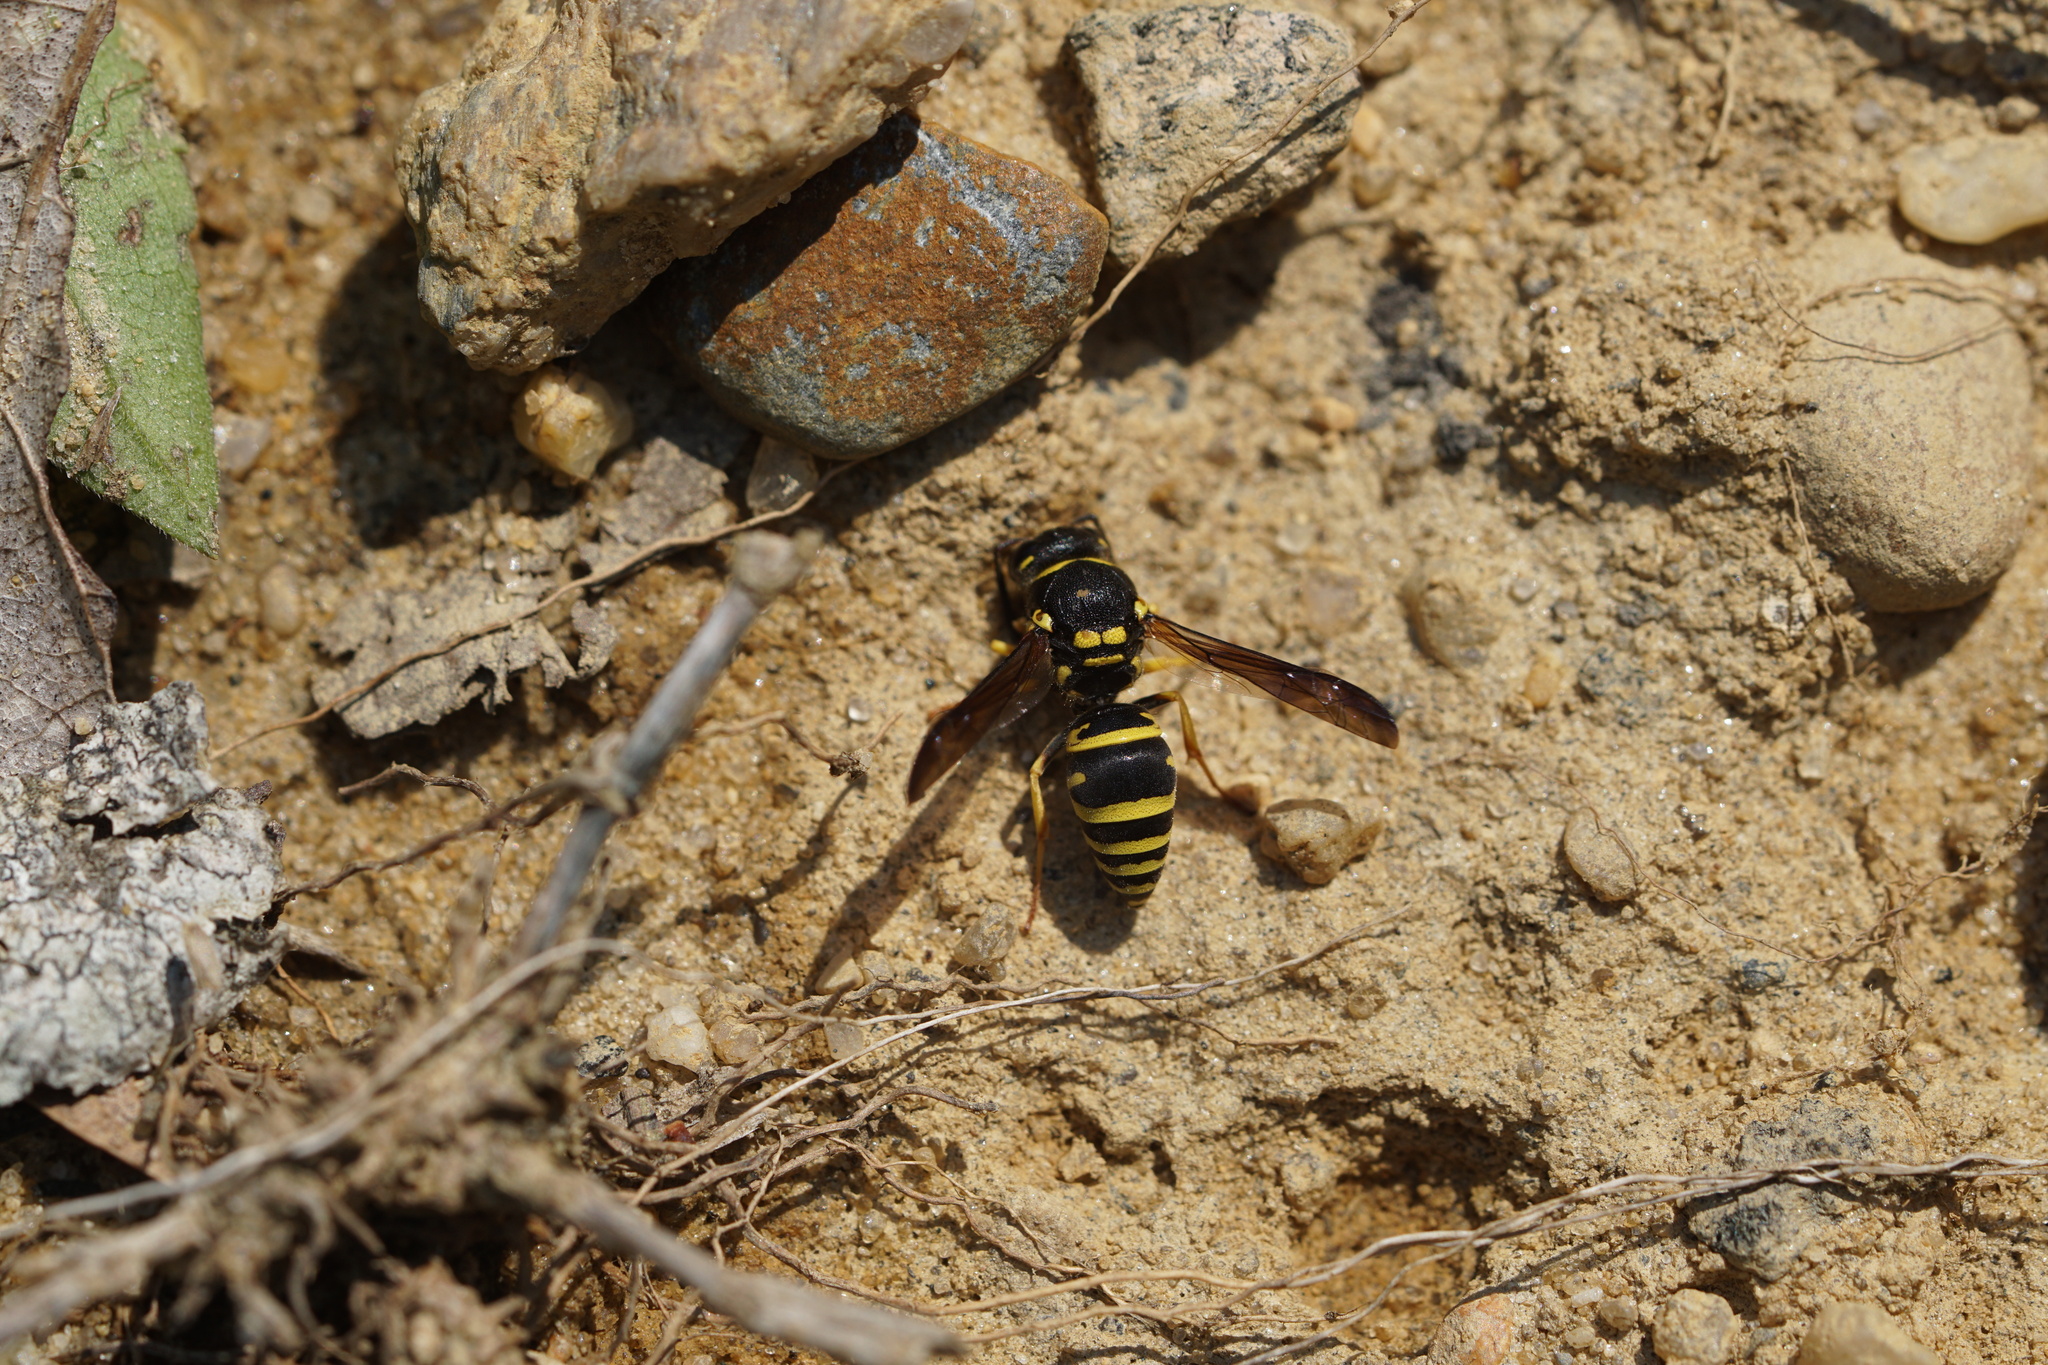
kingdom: Animalia
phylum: Arthropoda
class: Insecta
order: Hymenoptera
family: Vespidae
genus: Ancistrocerus
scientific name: Ancistrocerus lutonidus
